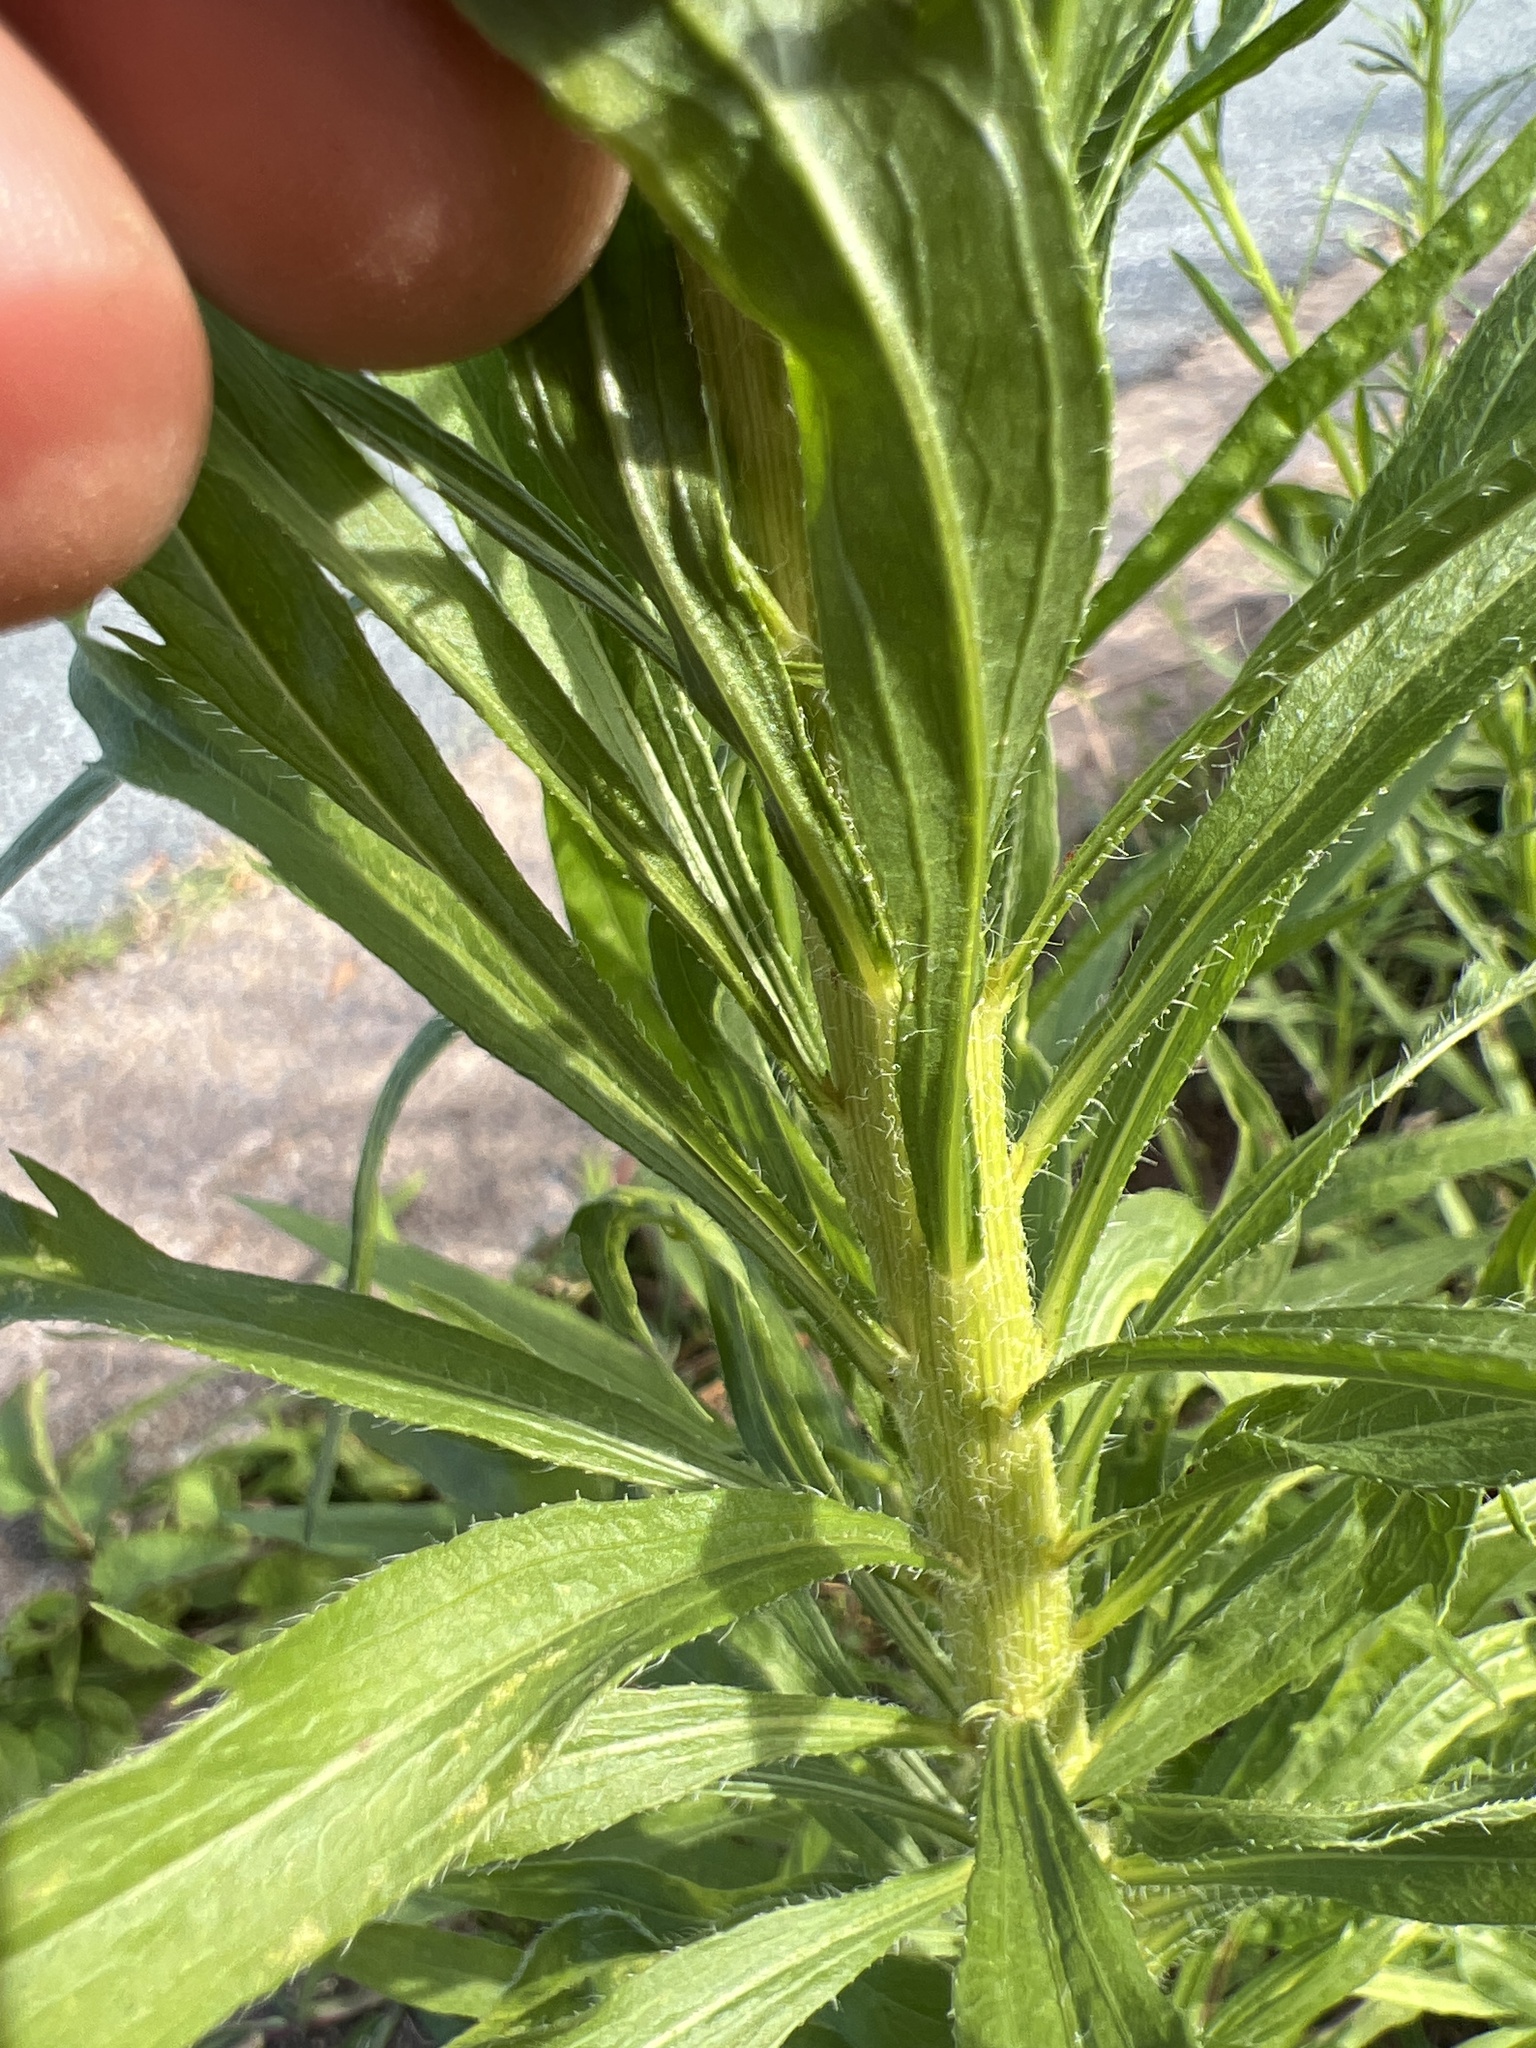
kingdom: Plantae
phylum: Tracheophyta
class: Magnoliopsida
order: Asterales
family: Asteraceae
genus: Erigeron
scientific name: Erigeron canadensis
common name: Canadian fleabane
